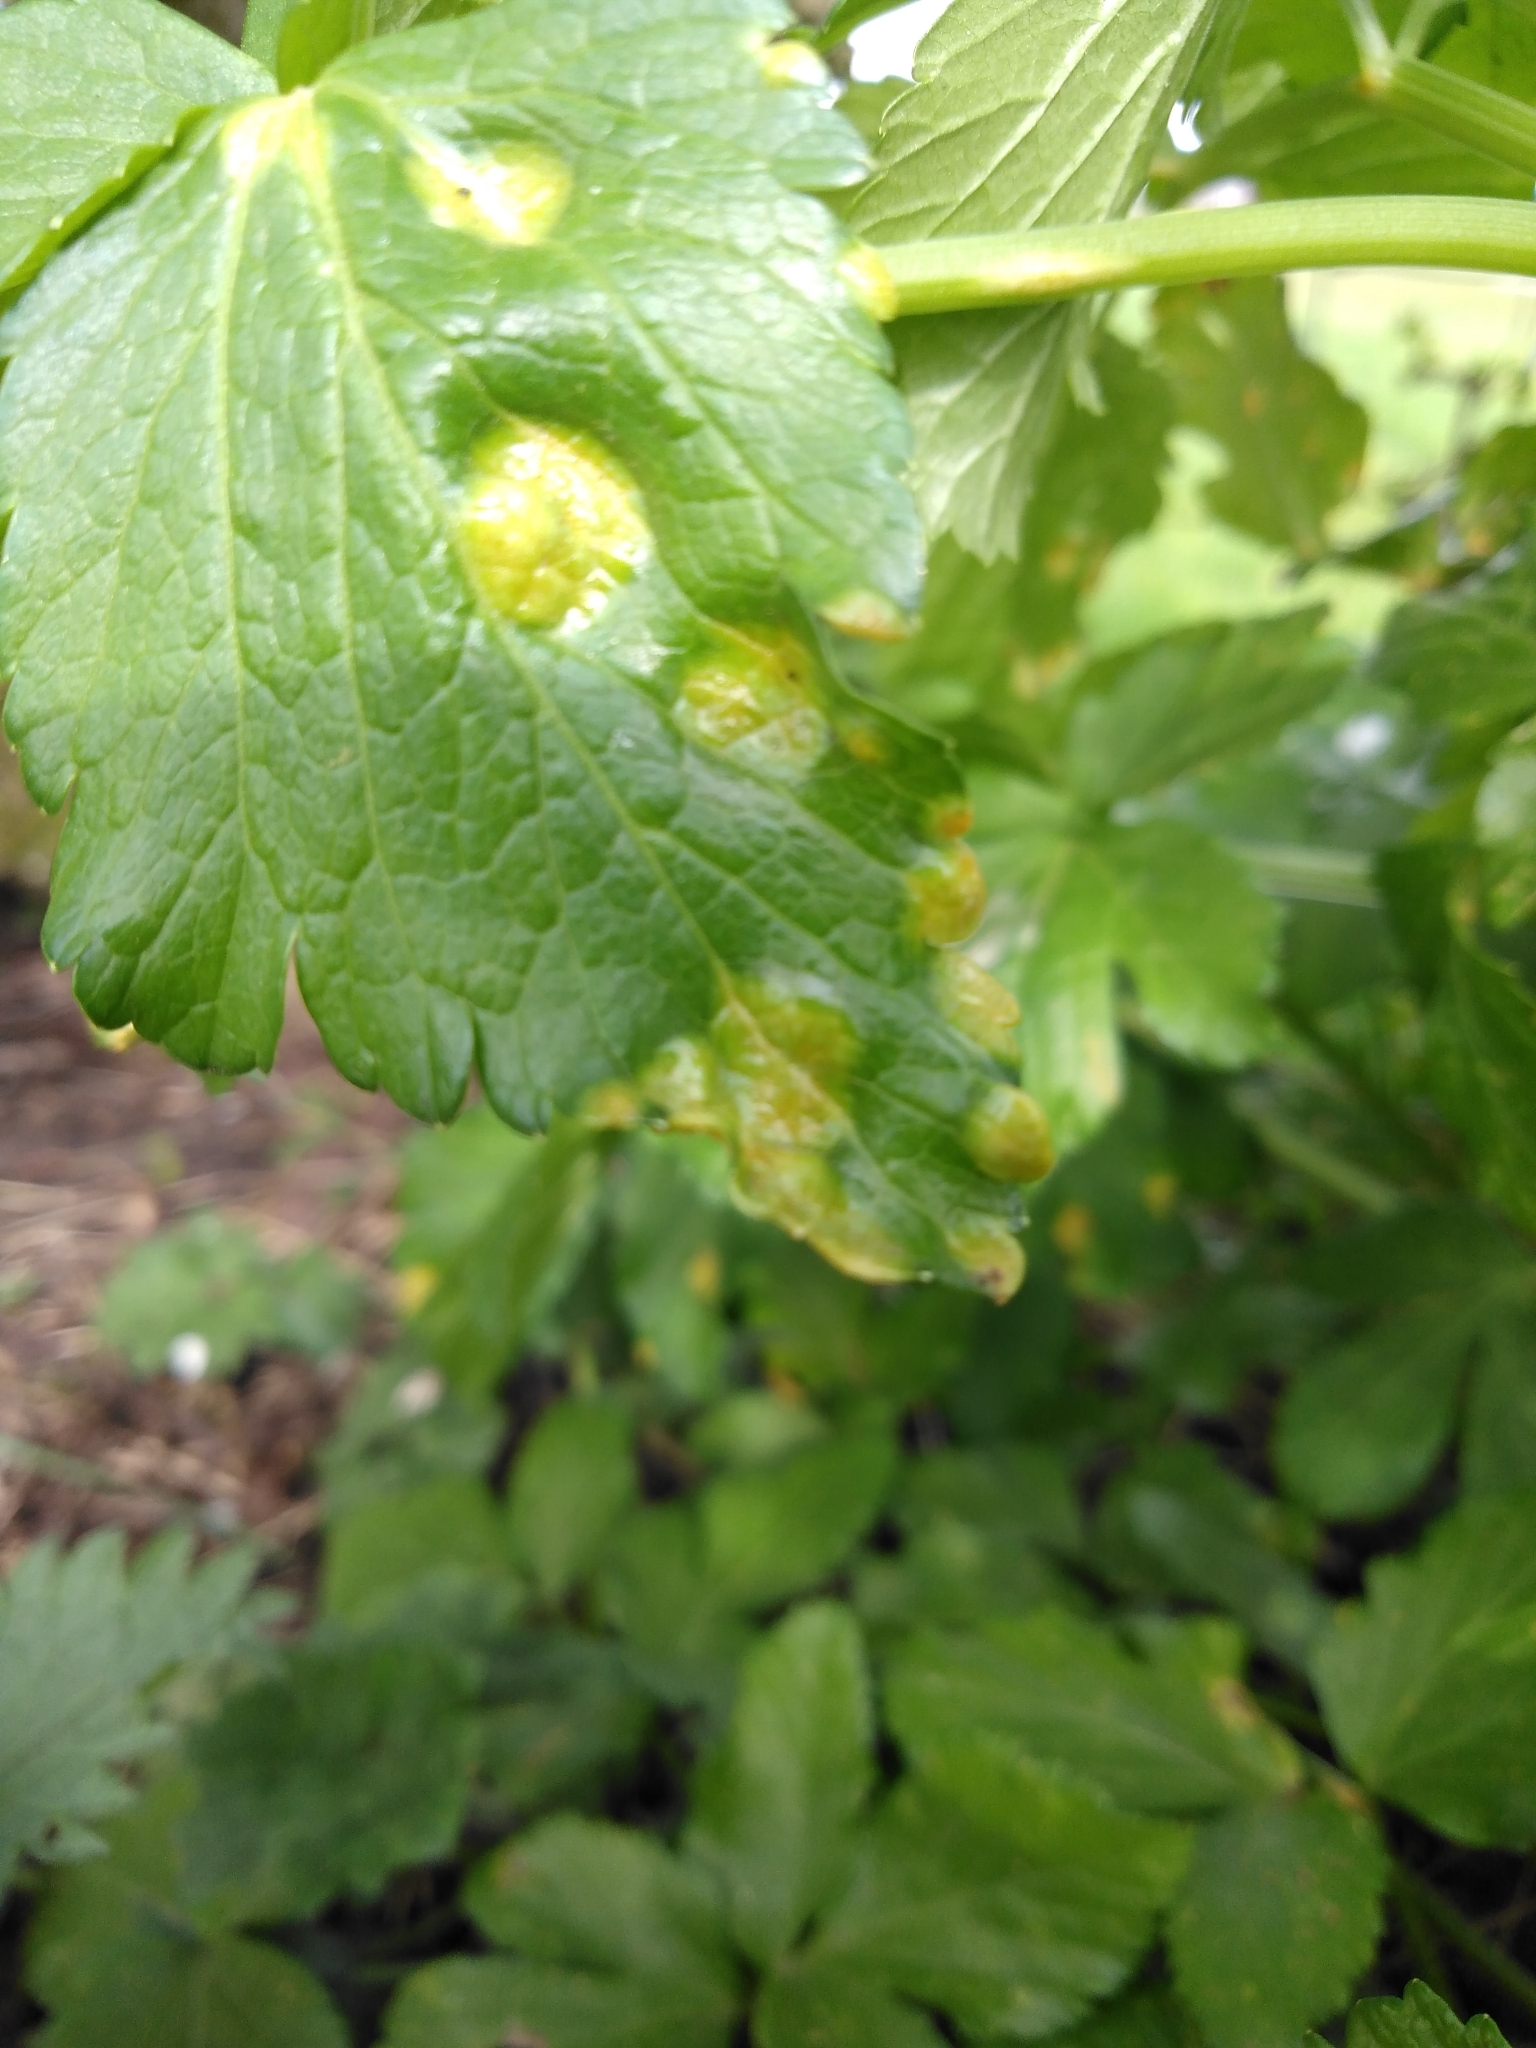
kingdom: Fungi
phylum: Basidiomycota
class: Pucciniomycetes
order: Pucciniales
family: Pucciniaceae
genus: Puccinia
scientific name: Puccinia smyrnii
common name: Alexanders rust
